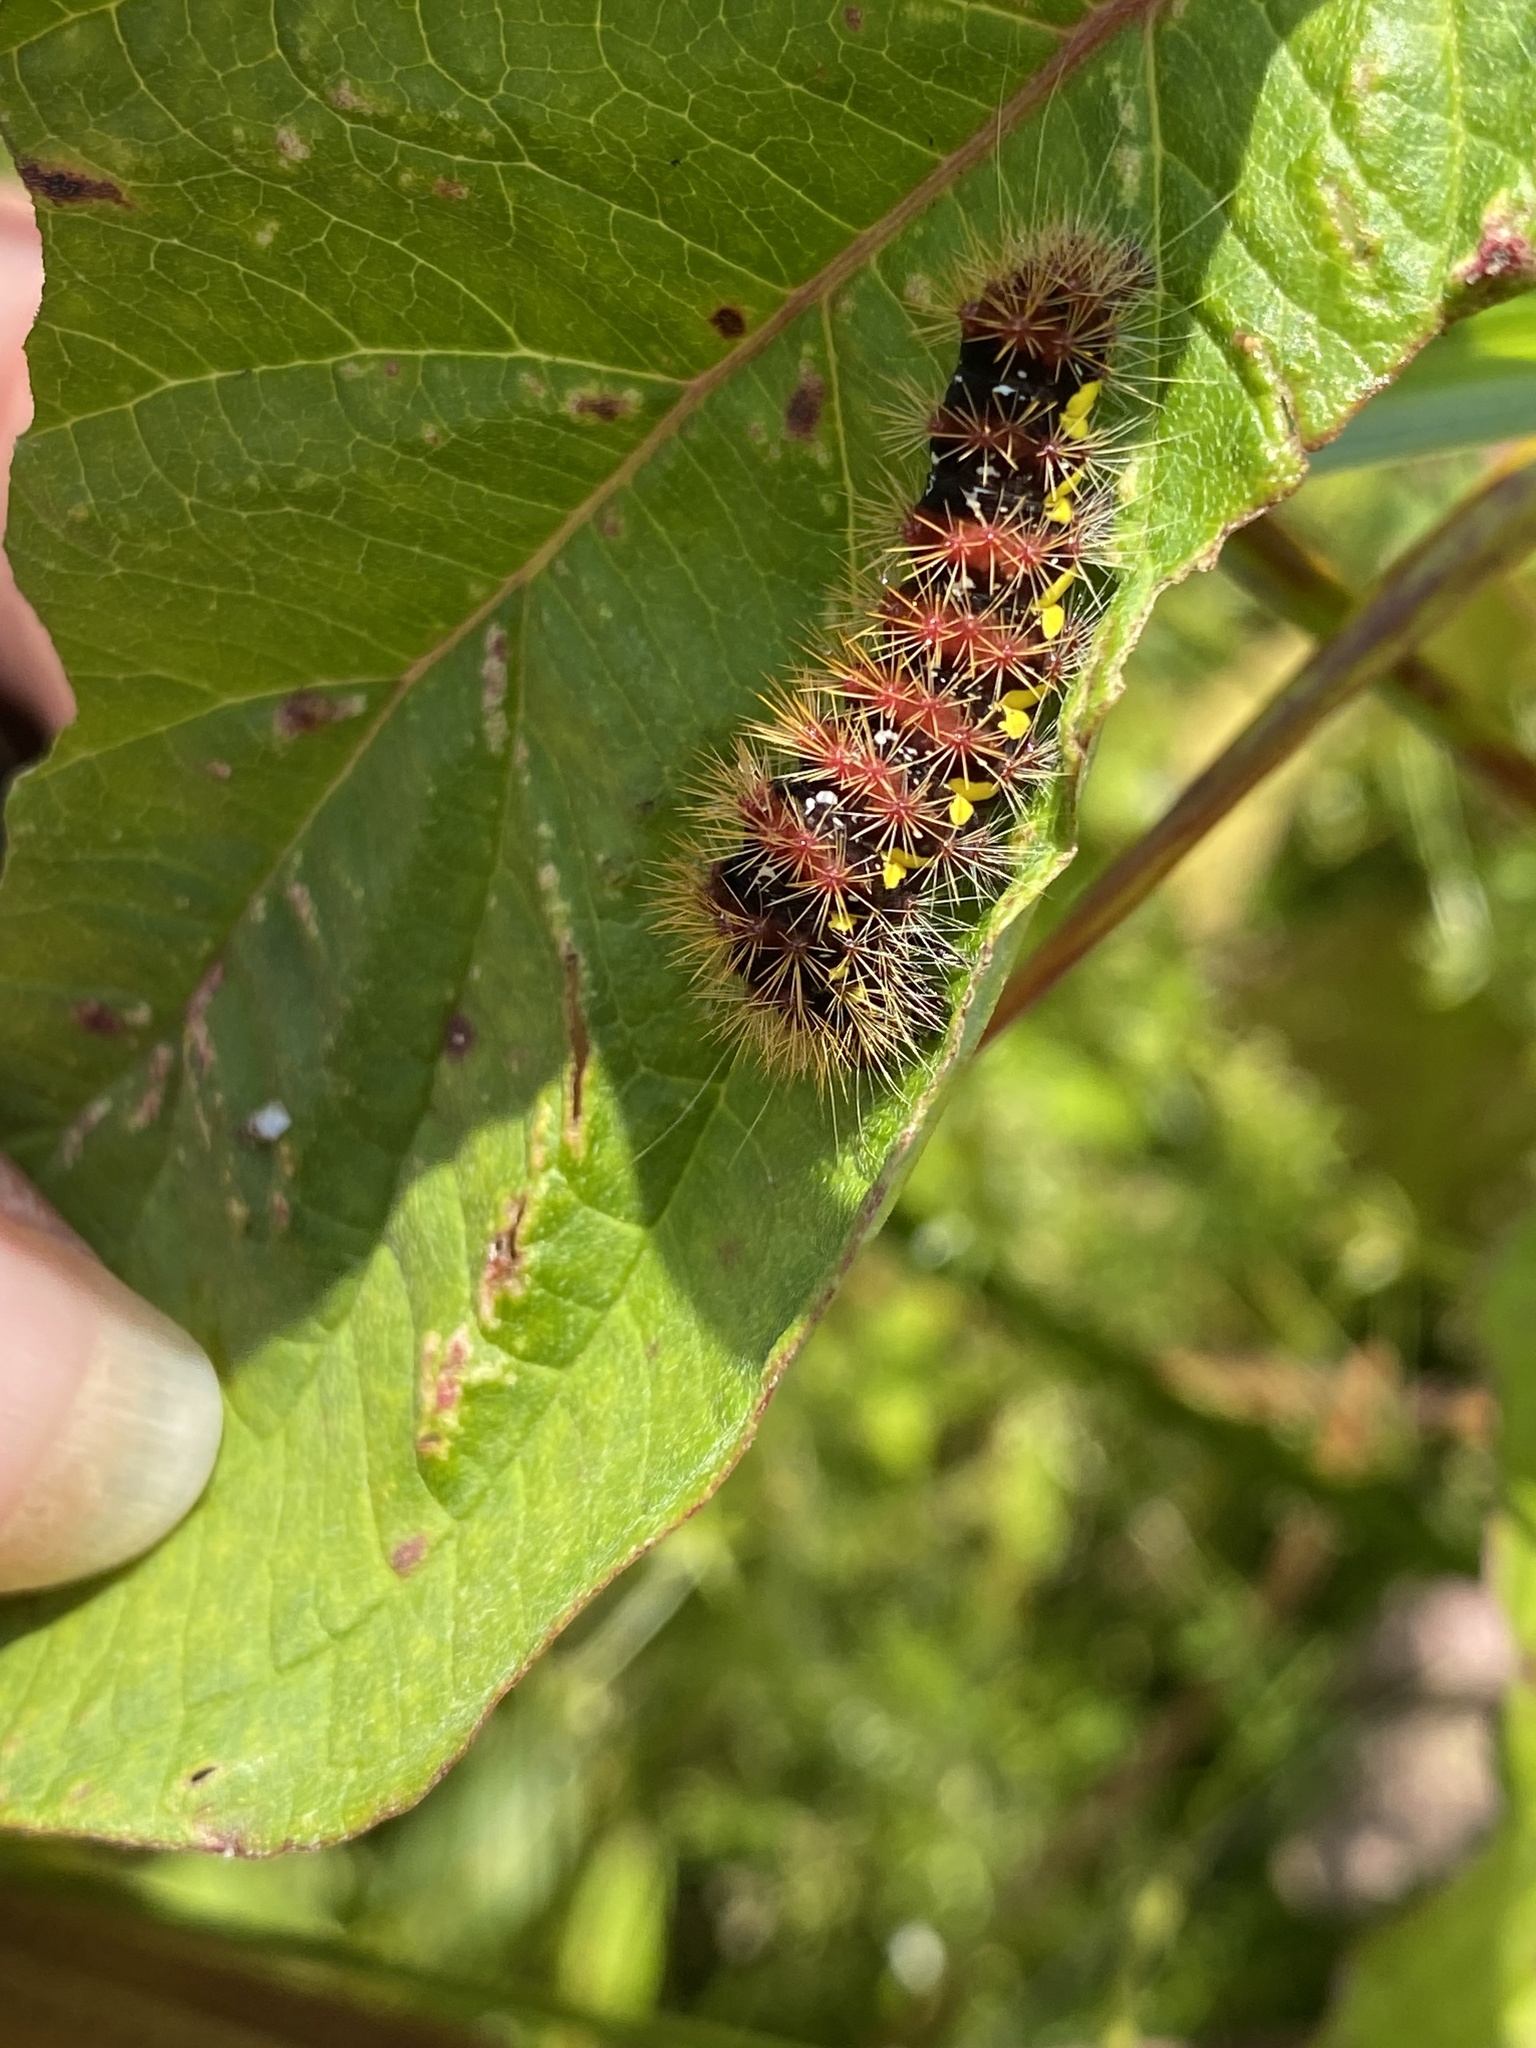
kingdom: Animalia
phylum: Arthropoda
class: Insecta
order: Lepidoptera
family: Noctuidae
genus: Acronicta
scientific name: Acronicta oblinita
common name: Smeared dagger
